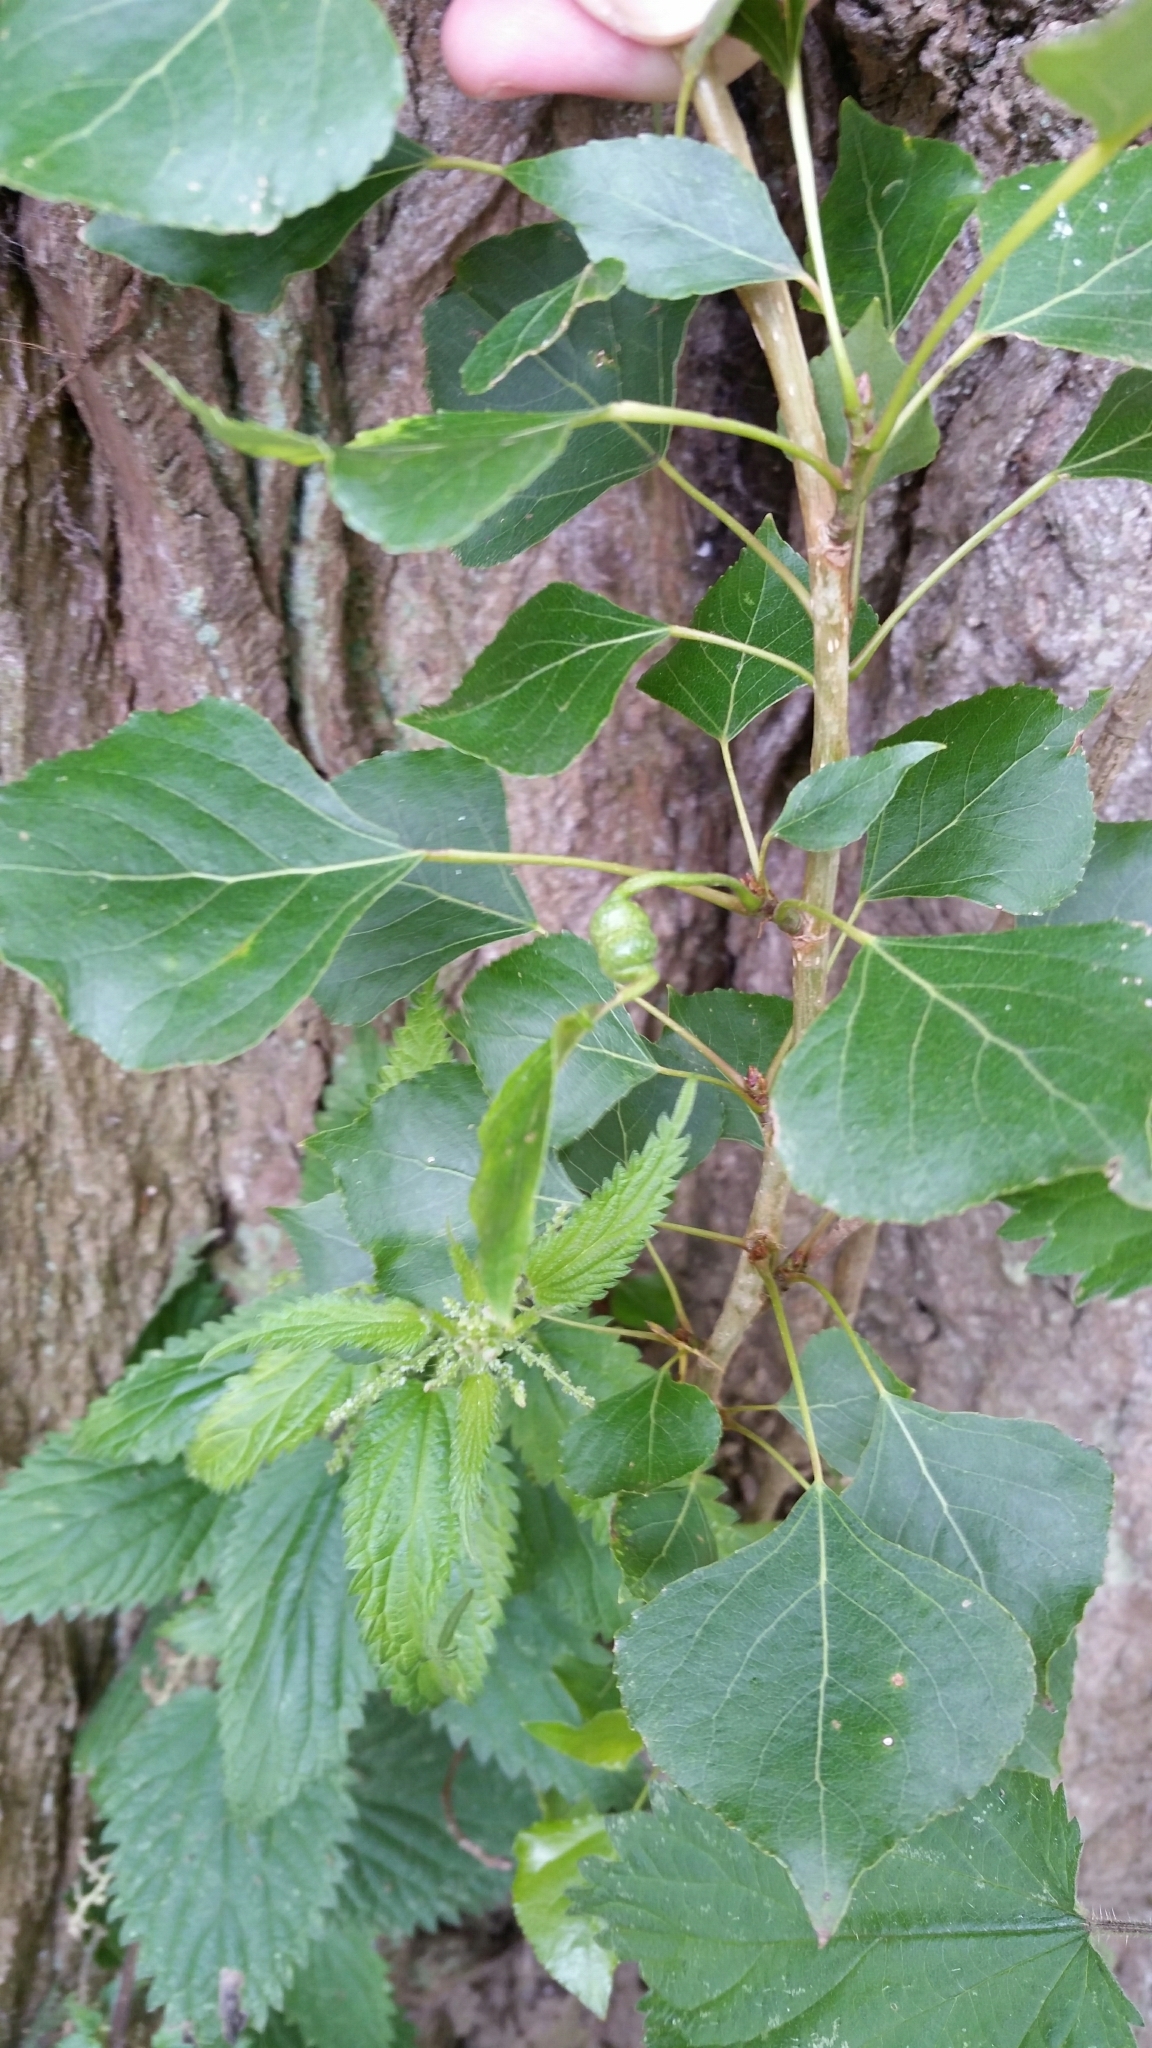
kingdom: Animalia
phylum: Arthropoda
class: Insecta
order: Hemiptera
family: Aphididae
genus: Pemphigus
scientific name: Pemphigus spyrothecae
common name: Aphid
